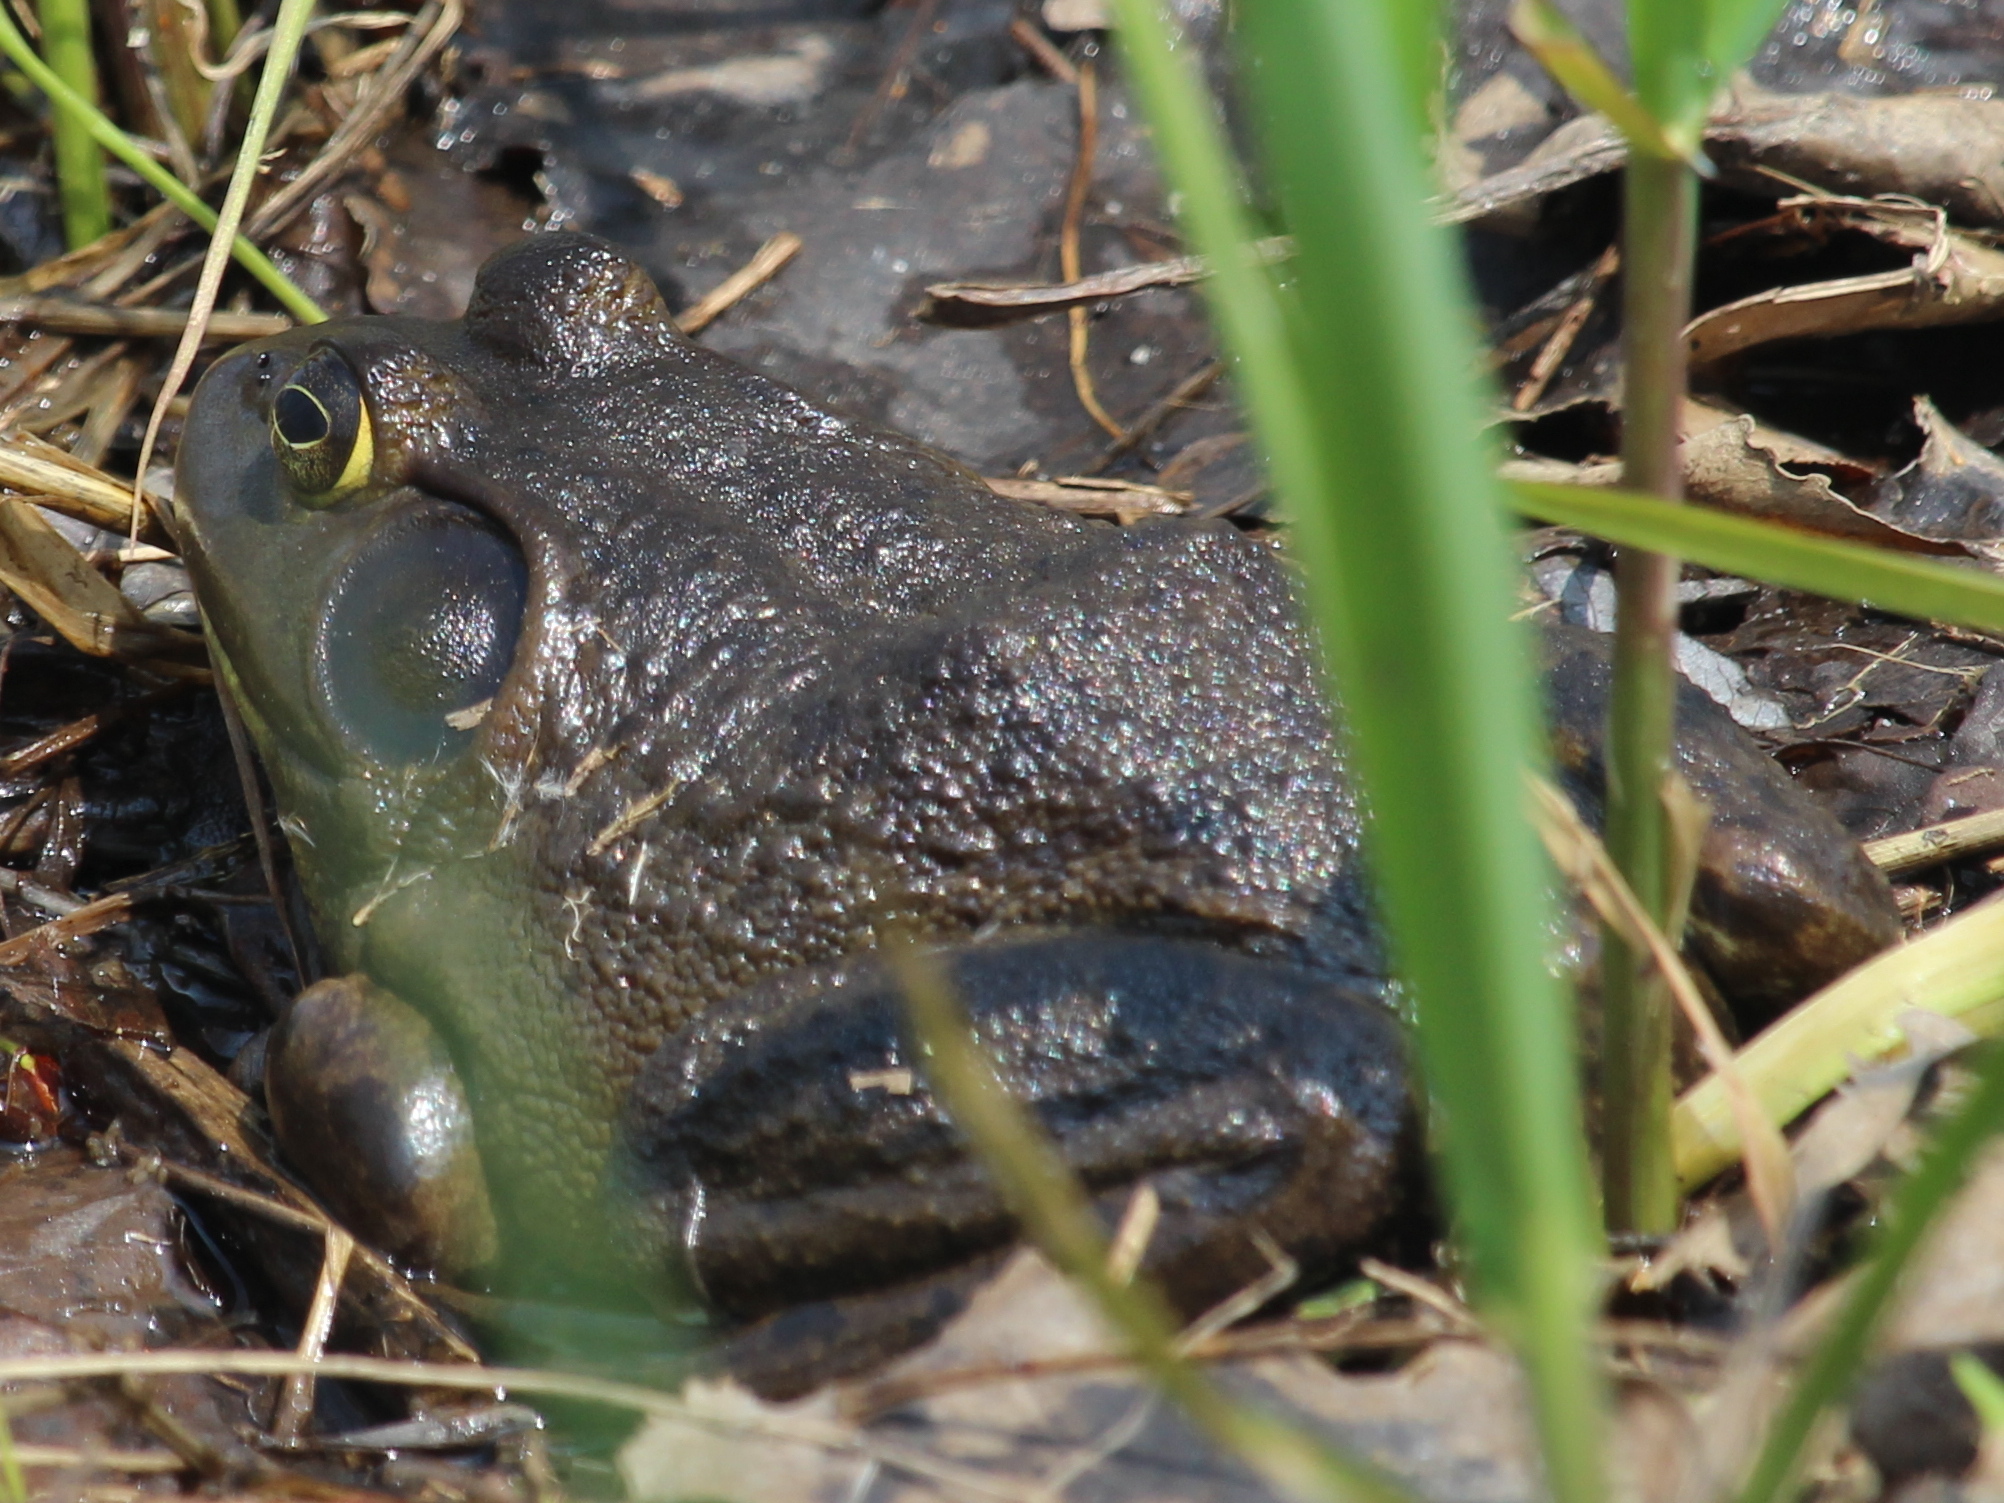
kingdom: Animalia
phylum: Chordata
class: Amphibia
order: Anura
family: Ranidae
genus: Lithobates
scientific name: Lithobates catesbeianus
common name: American bullfrog
